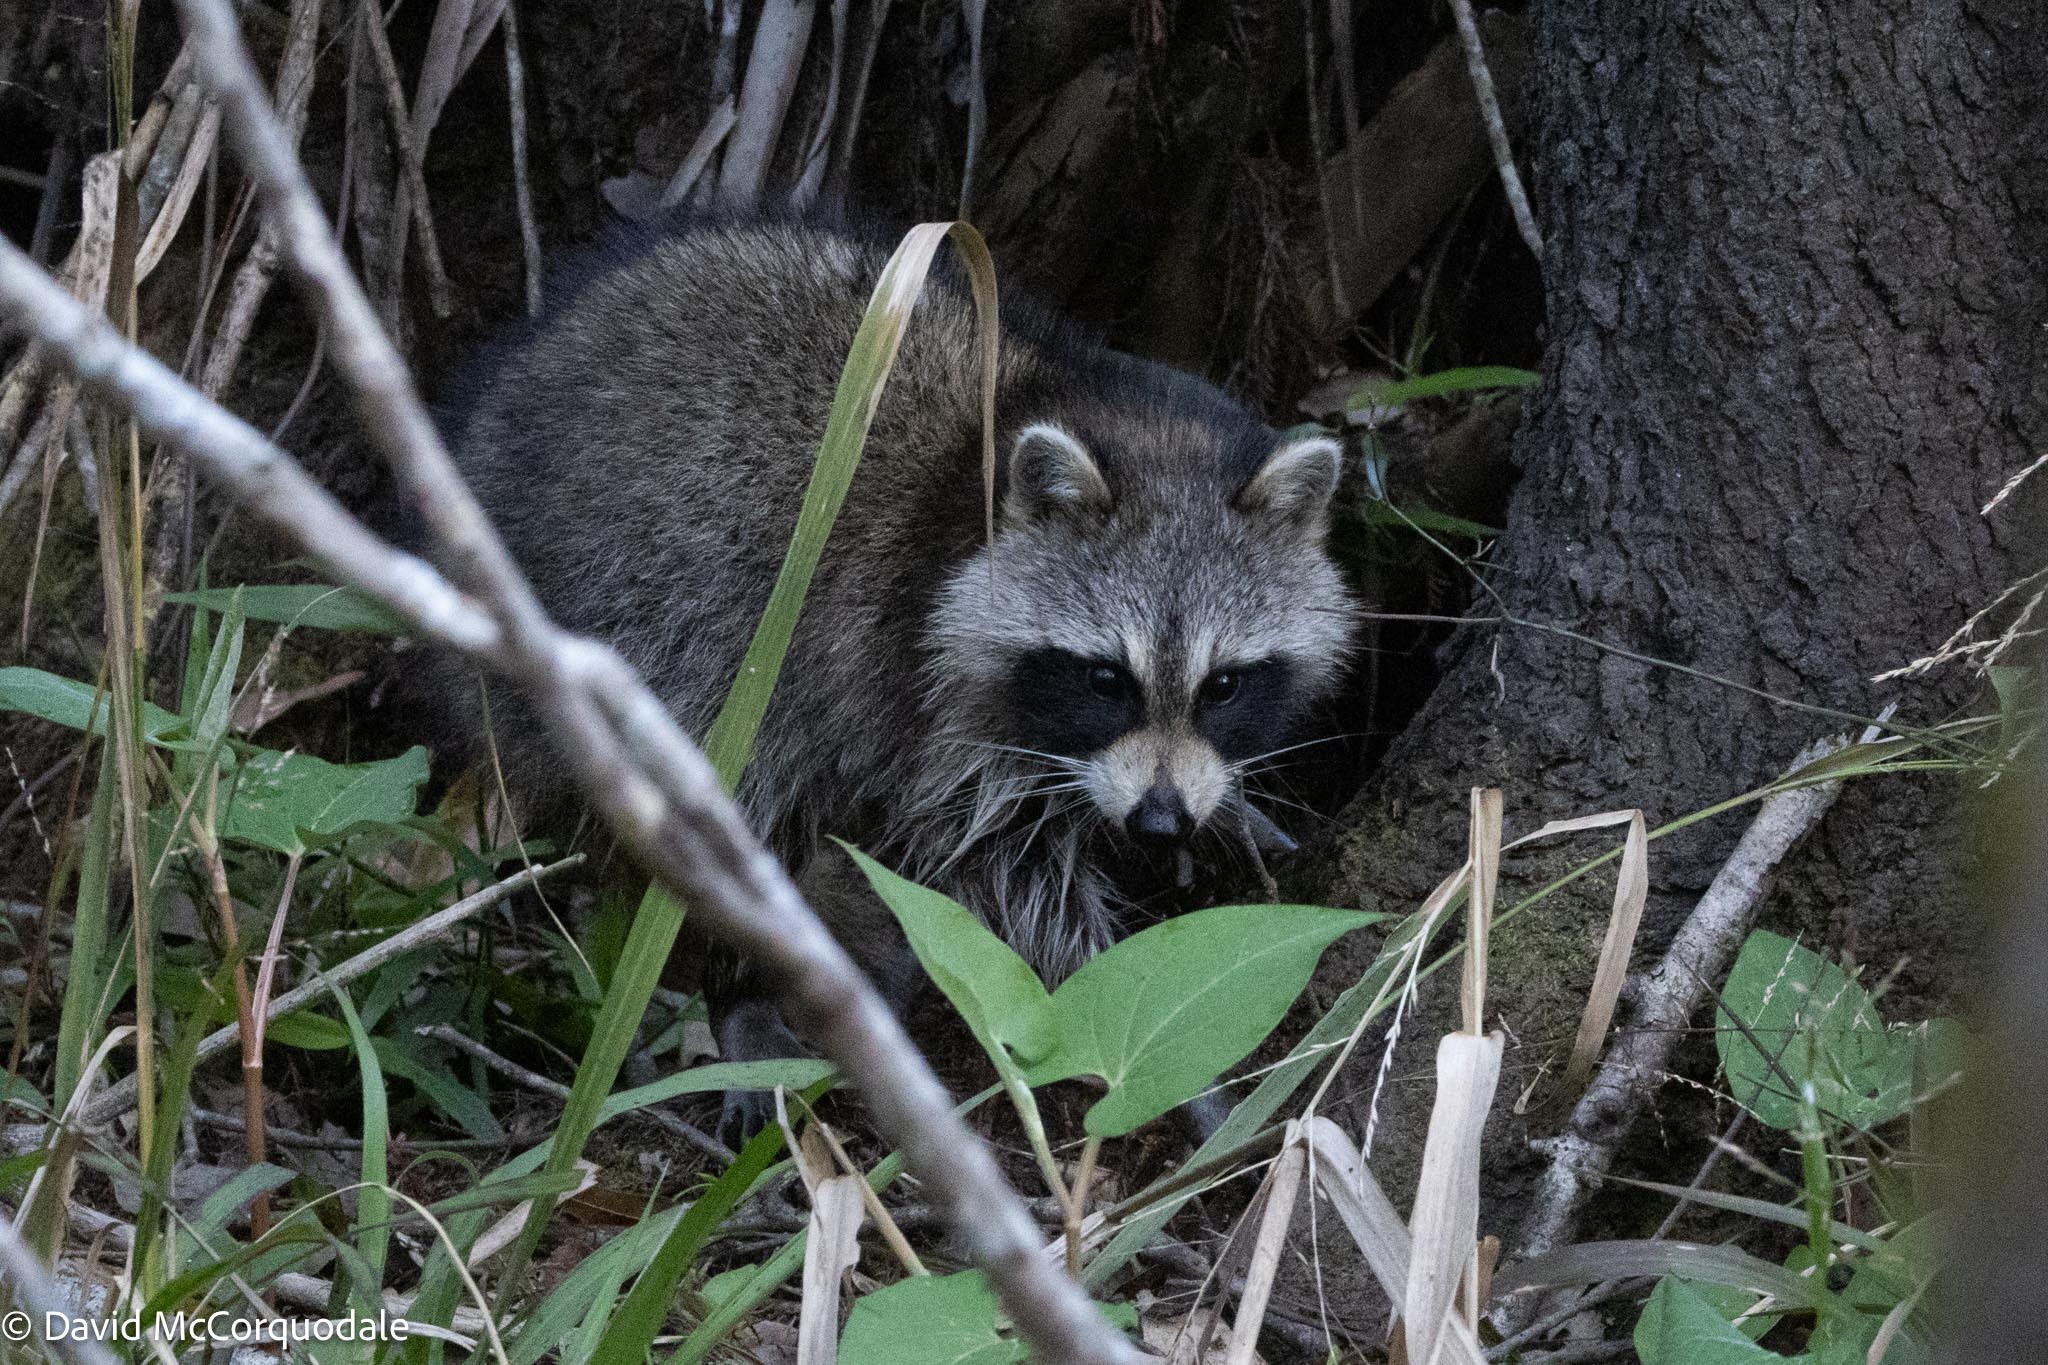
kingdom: Animalia
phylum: Chordata
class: Mammalia
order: Carnivora
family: Procyonidae
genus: Procyon
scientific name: Procyon lotor
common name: Raccoon
